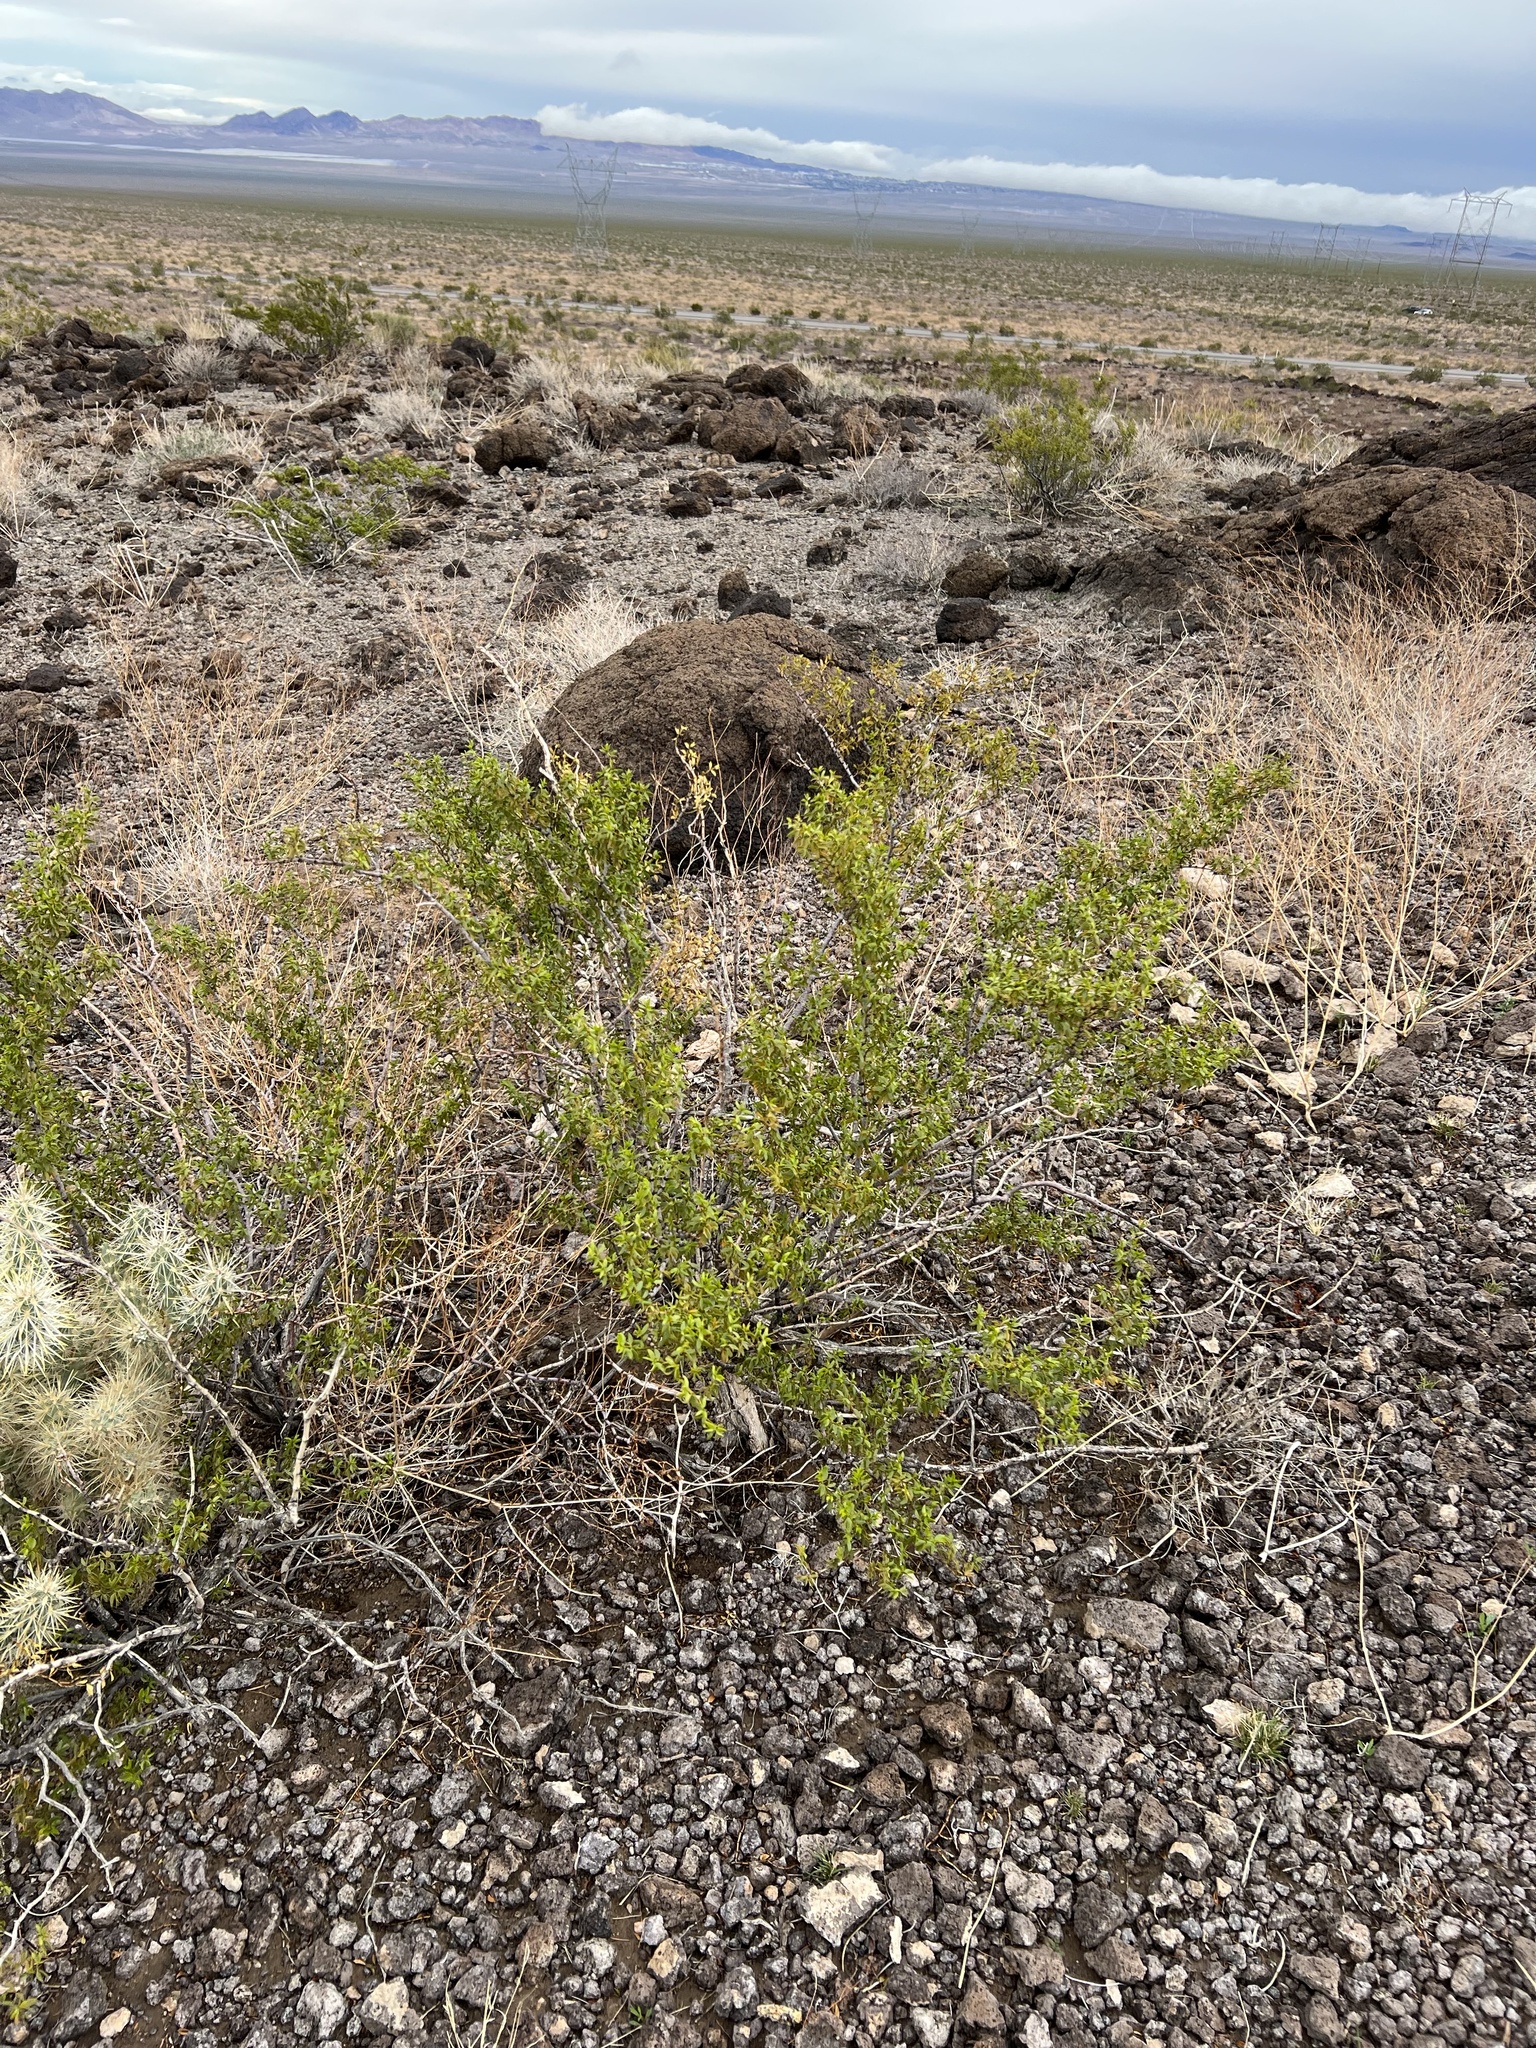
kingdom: Plantae
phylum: Tracheophyta
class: Magnoliopsida
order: Zygophyllales
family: Zygophyllaceae
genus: Larrea
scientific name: Larrea tridentata
